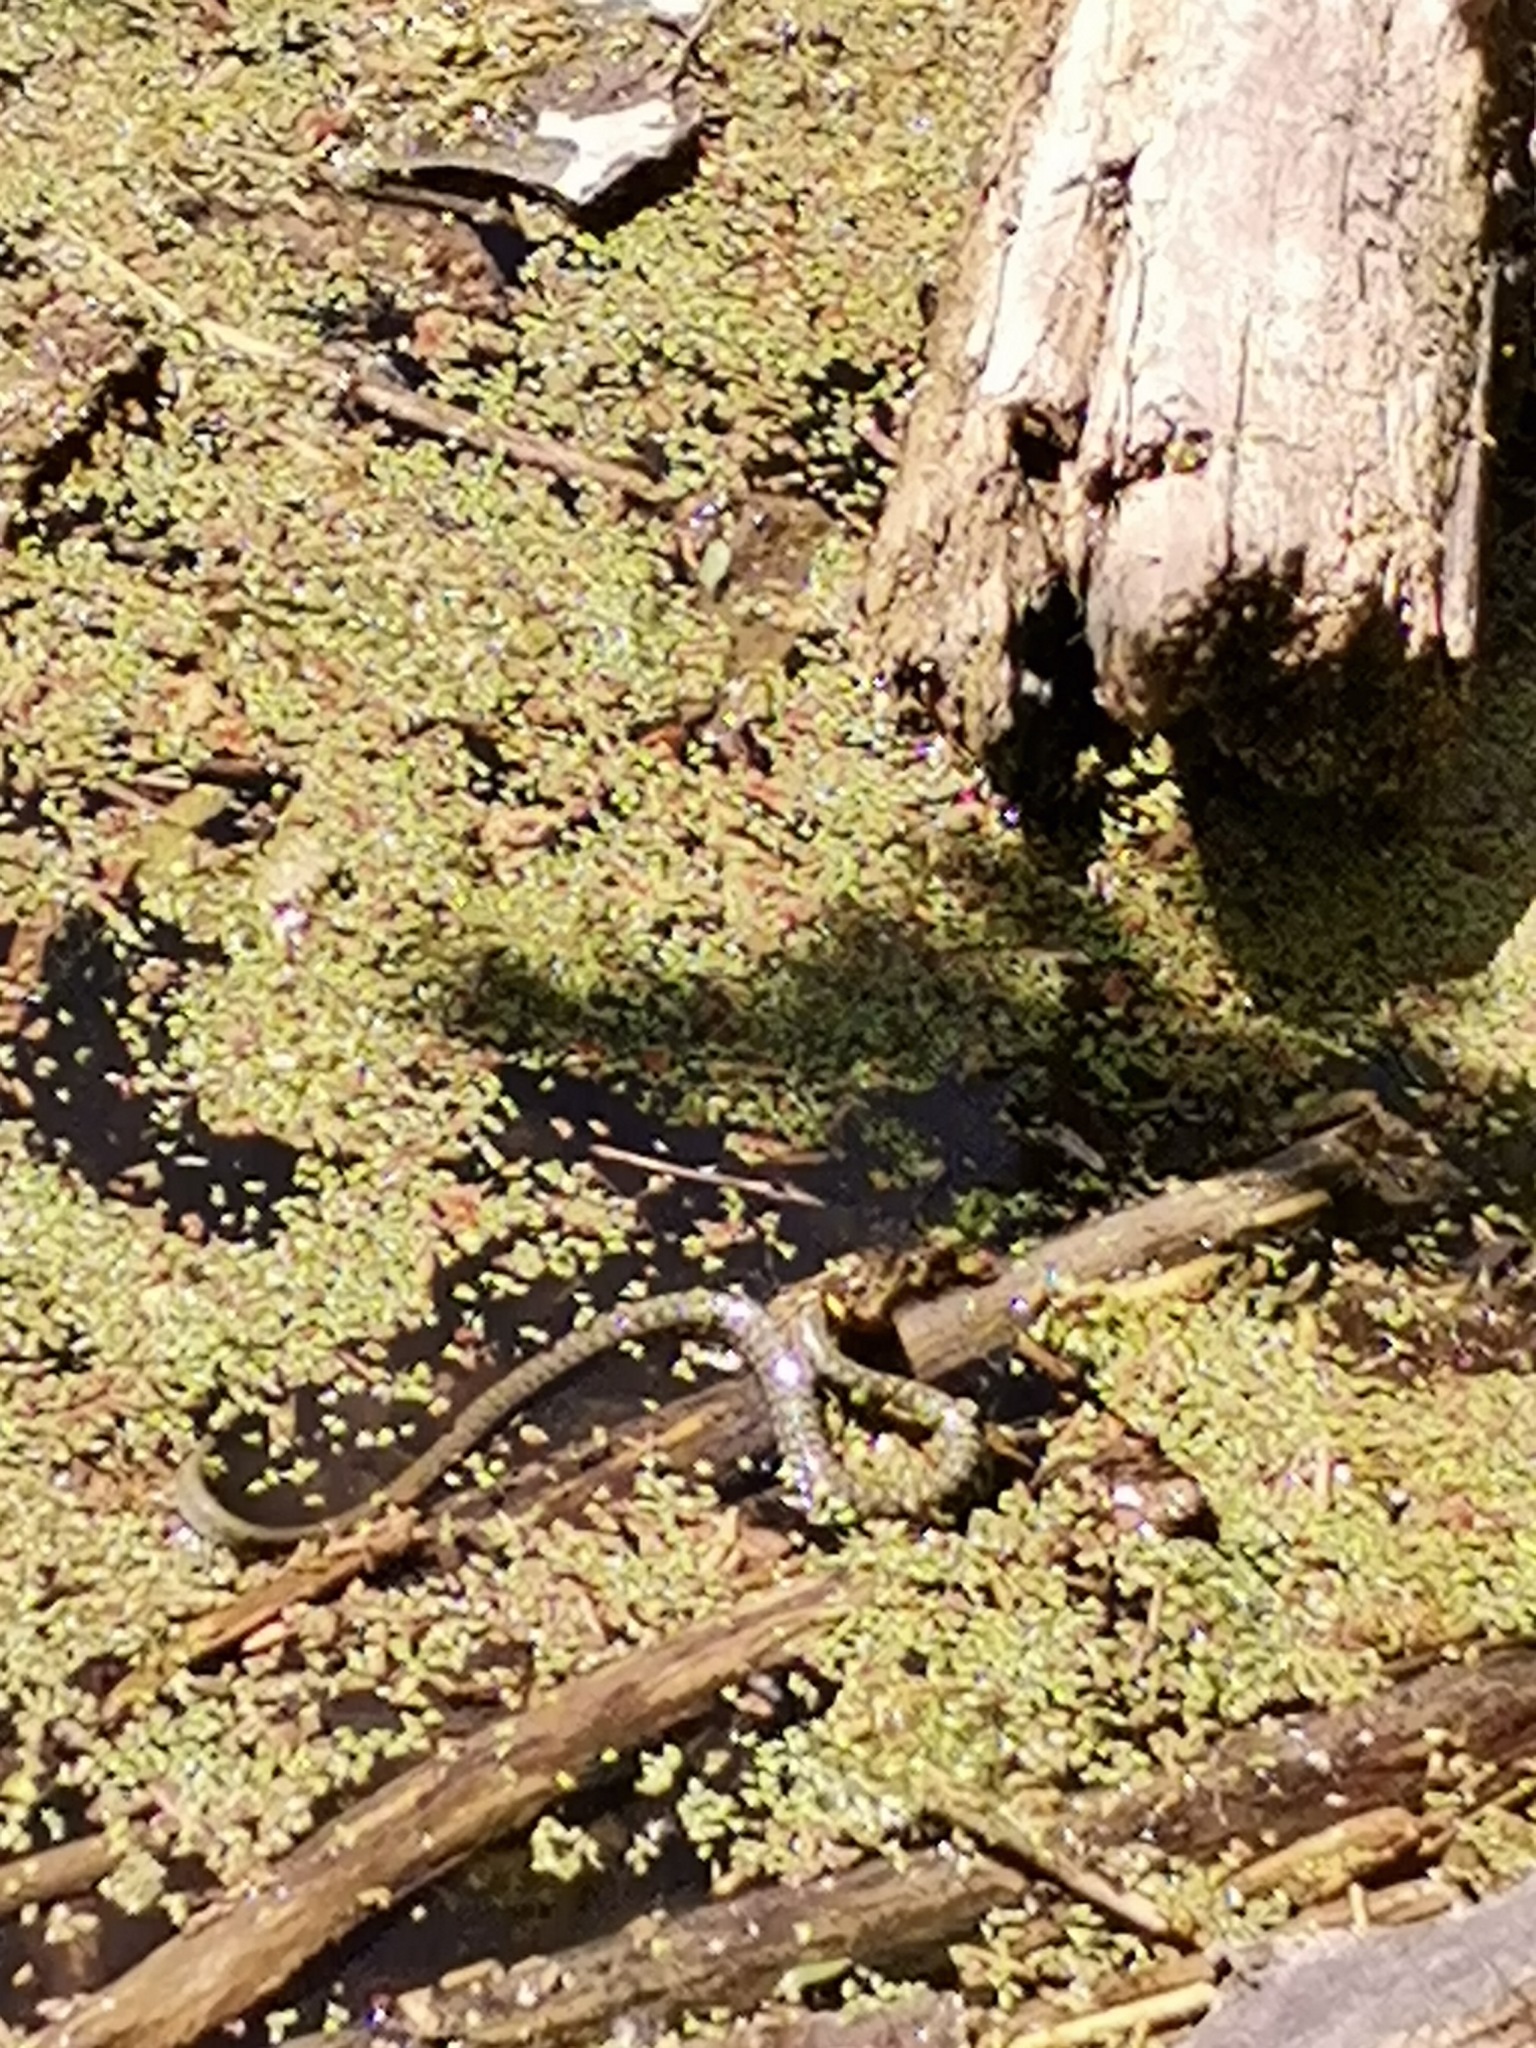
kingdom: Animalia
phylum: Chordata
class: Squamata
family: Colubridae
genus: Natrix
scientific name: Natrix natrix
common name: Grass snake
